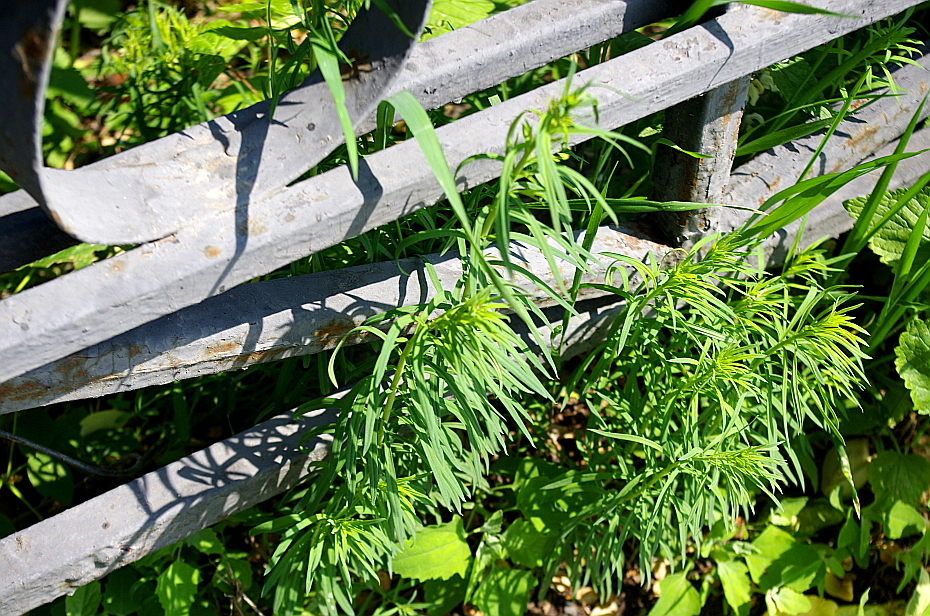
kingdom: Plantae
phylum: Tracheophyta
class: Magnoliopsida
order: Lamiales
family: Plantaginaceae
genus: Linaria
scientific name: Linaria vulgaris
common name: Butter and eggs
